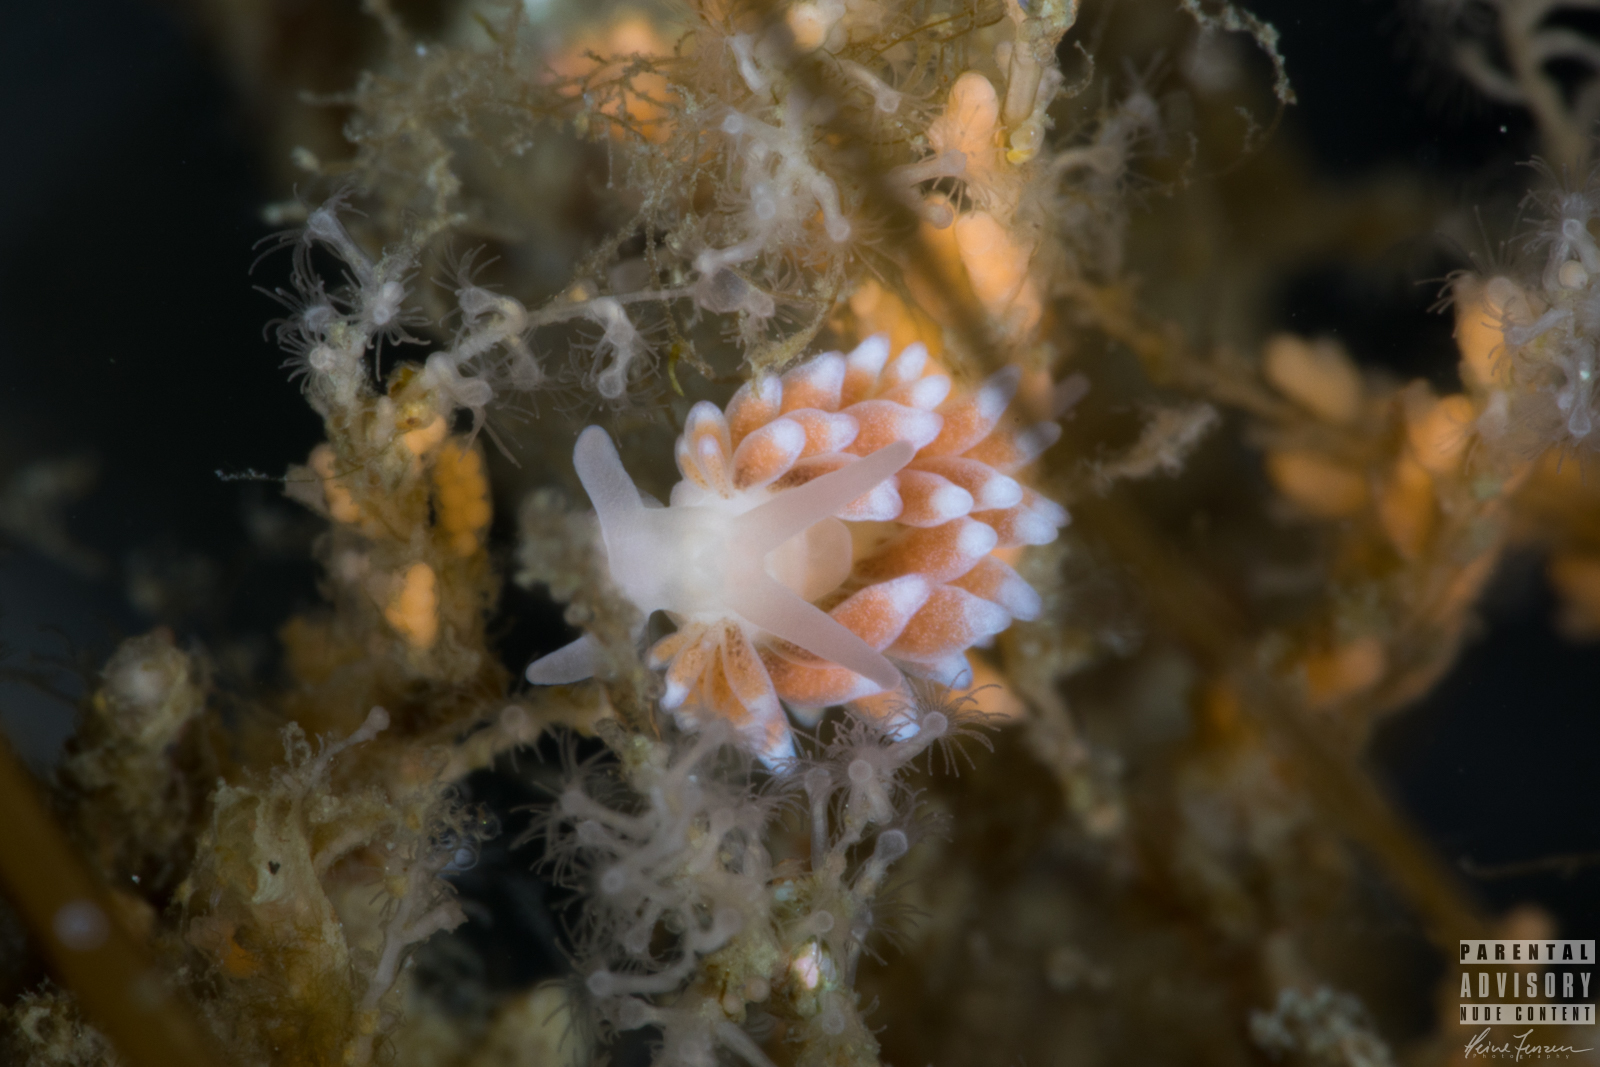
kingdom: Animalia
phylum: Mollusca
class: Gastropoda
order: Nudibranchia
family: Trinchesiidae
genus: Catriona
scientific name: Catriona aurantia
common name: Corange-tip cuthona
